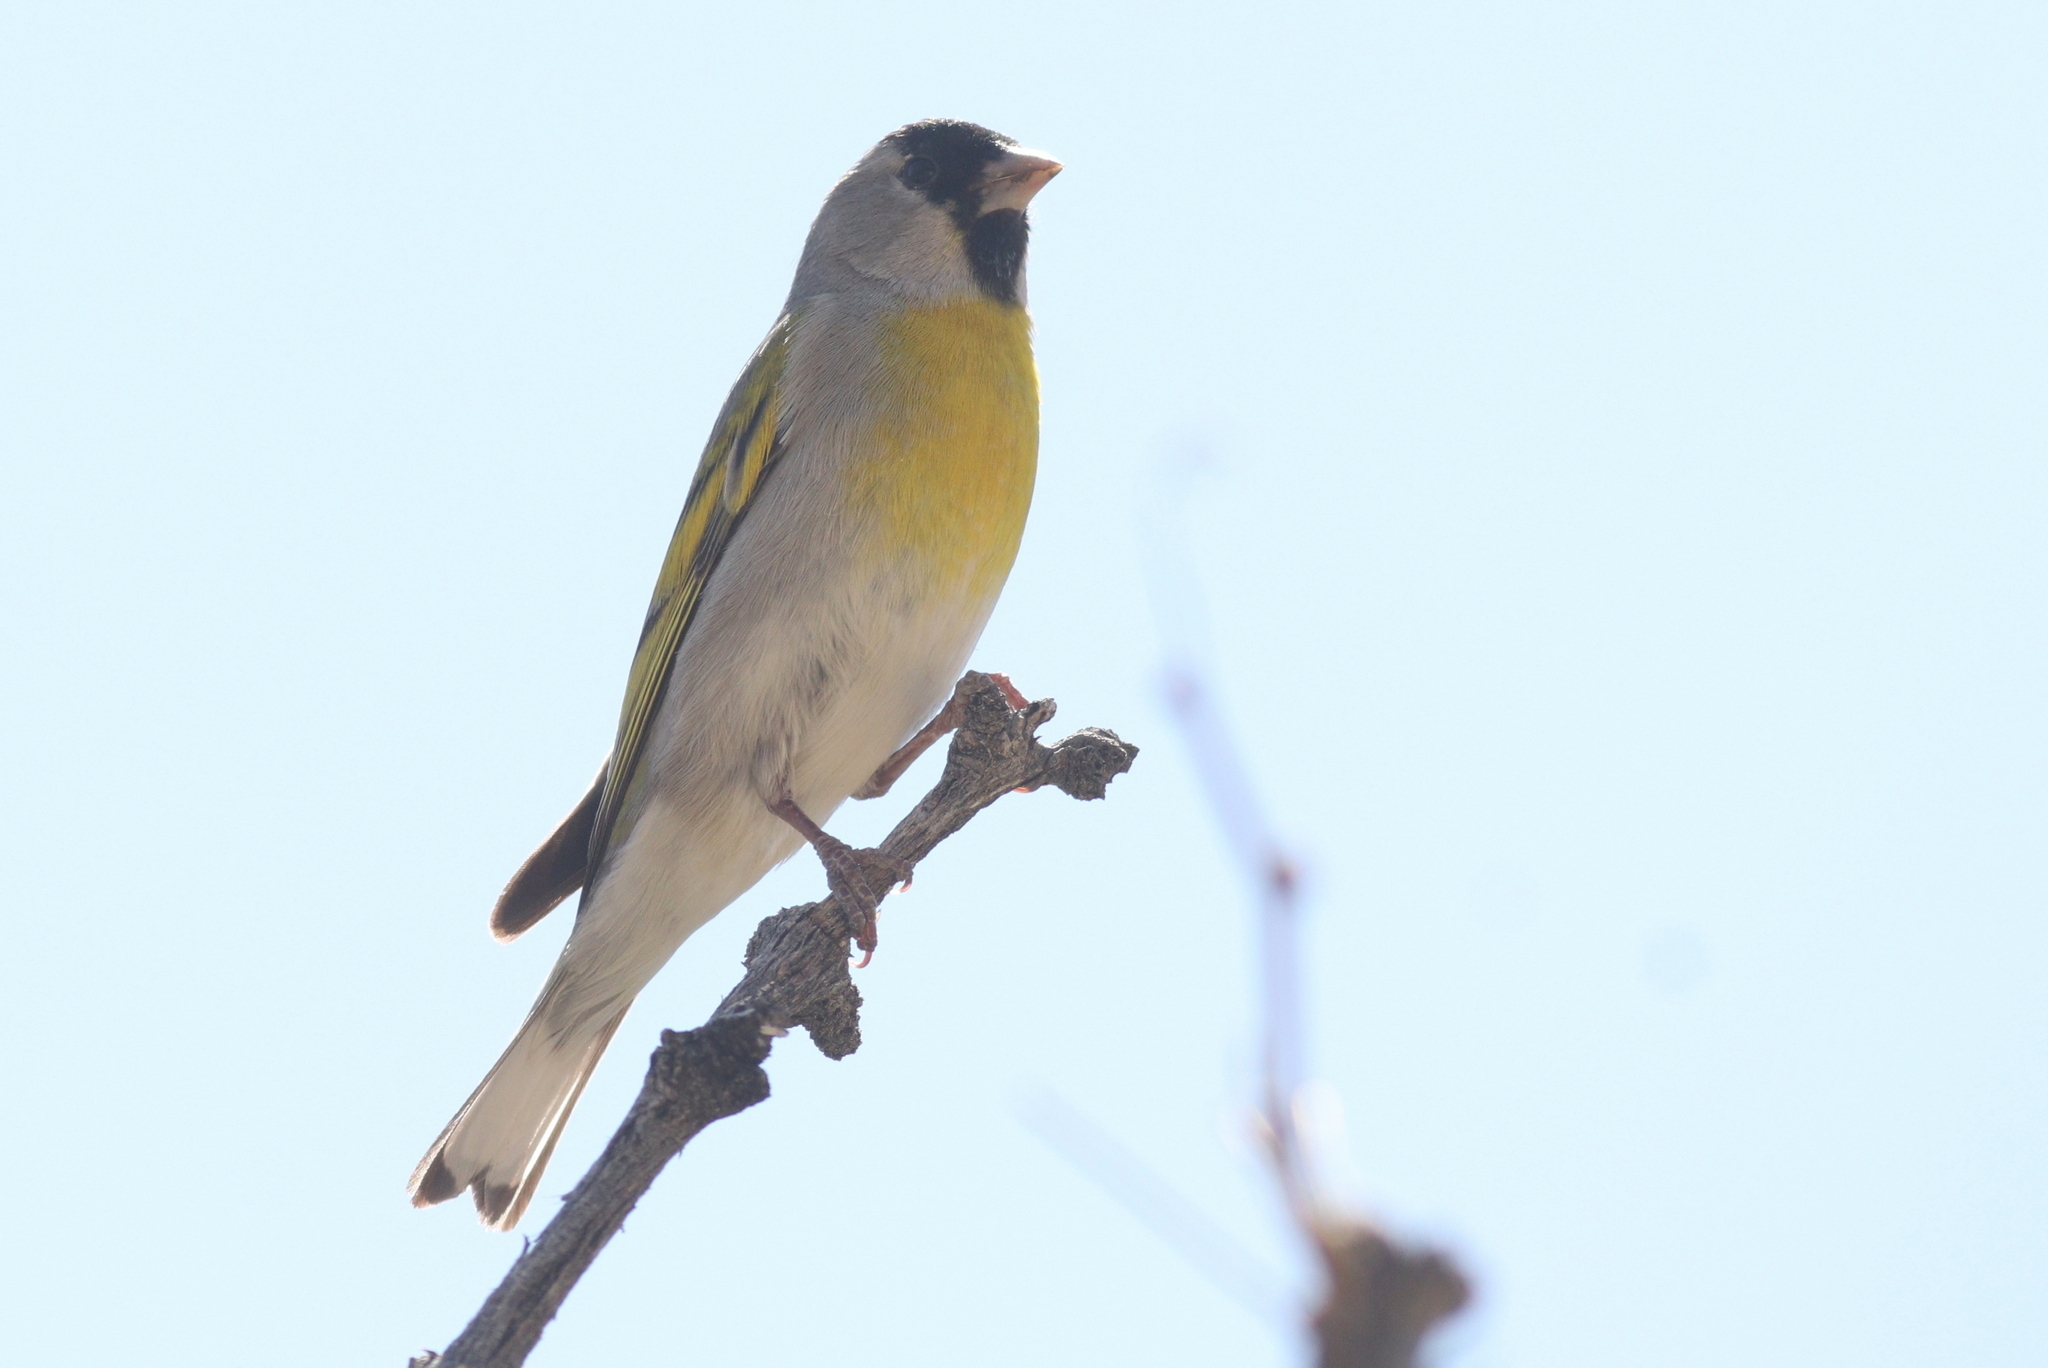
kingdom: Animalia
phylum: Chordata
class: Aves
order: Passeriformes
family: Fringillidae
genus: Spinus
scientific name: Spinus lawrencei
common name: Lawrence's goldfinch
